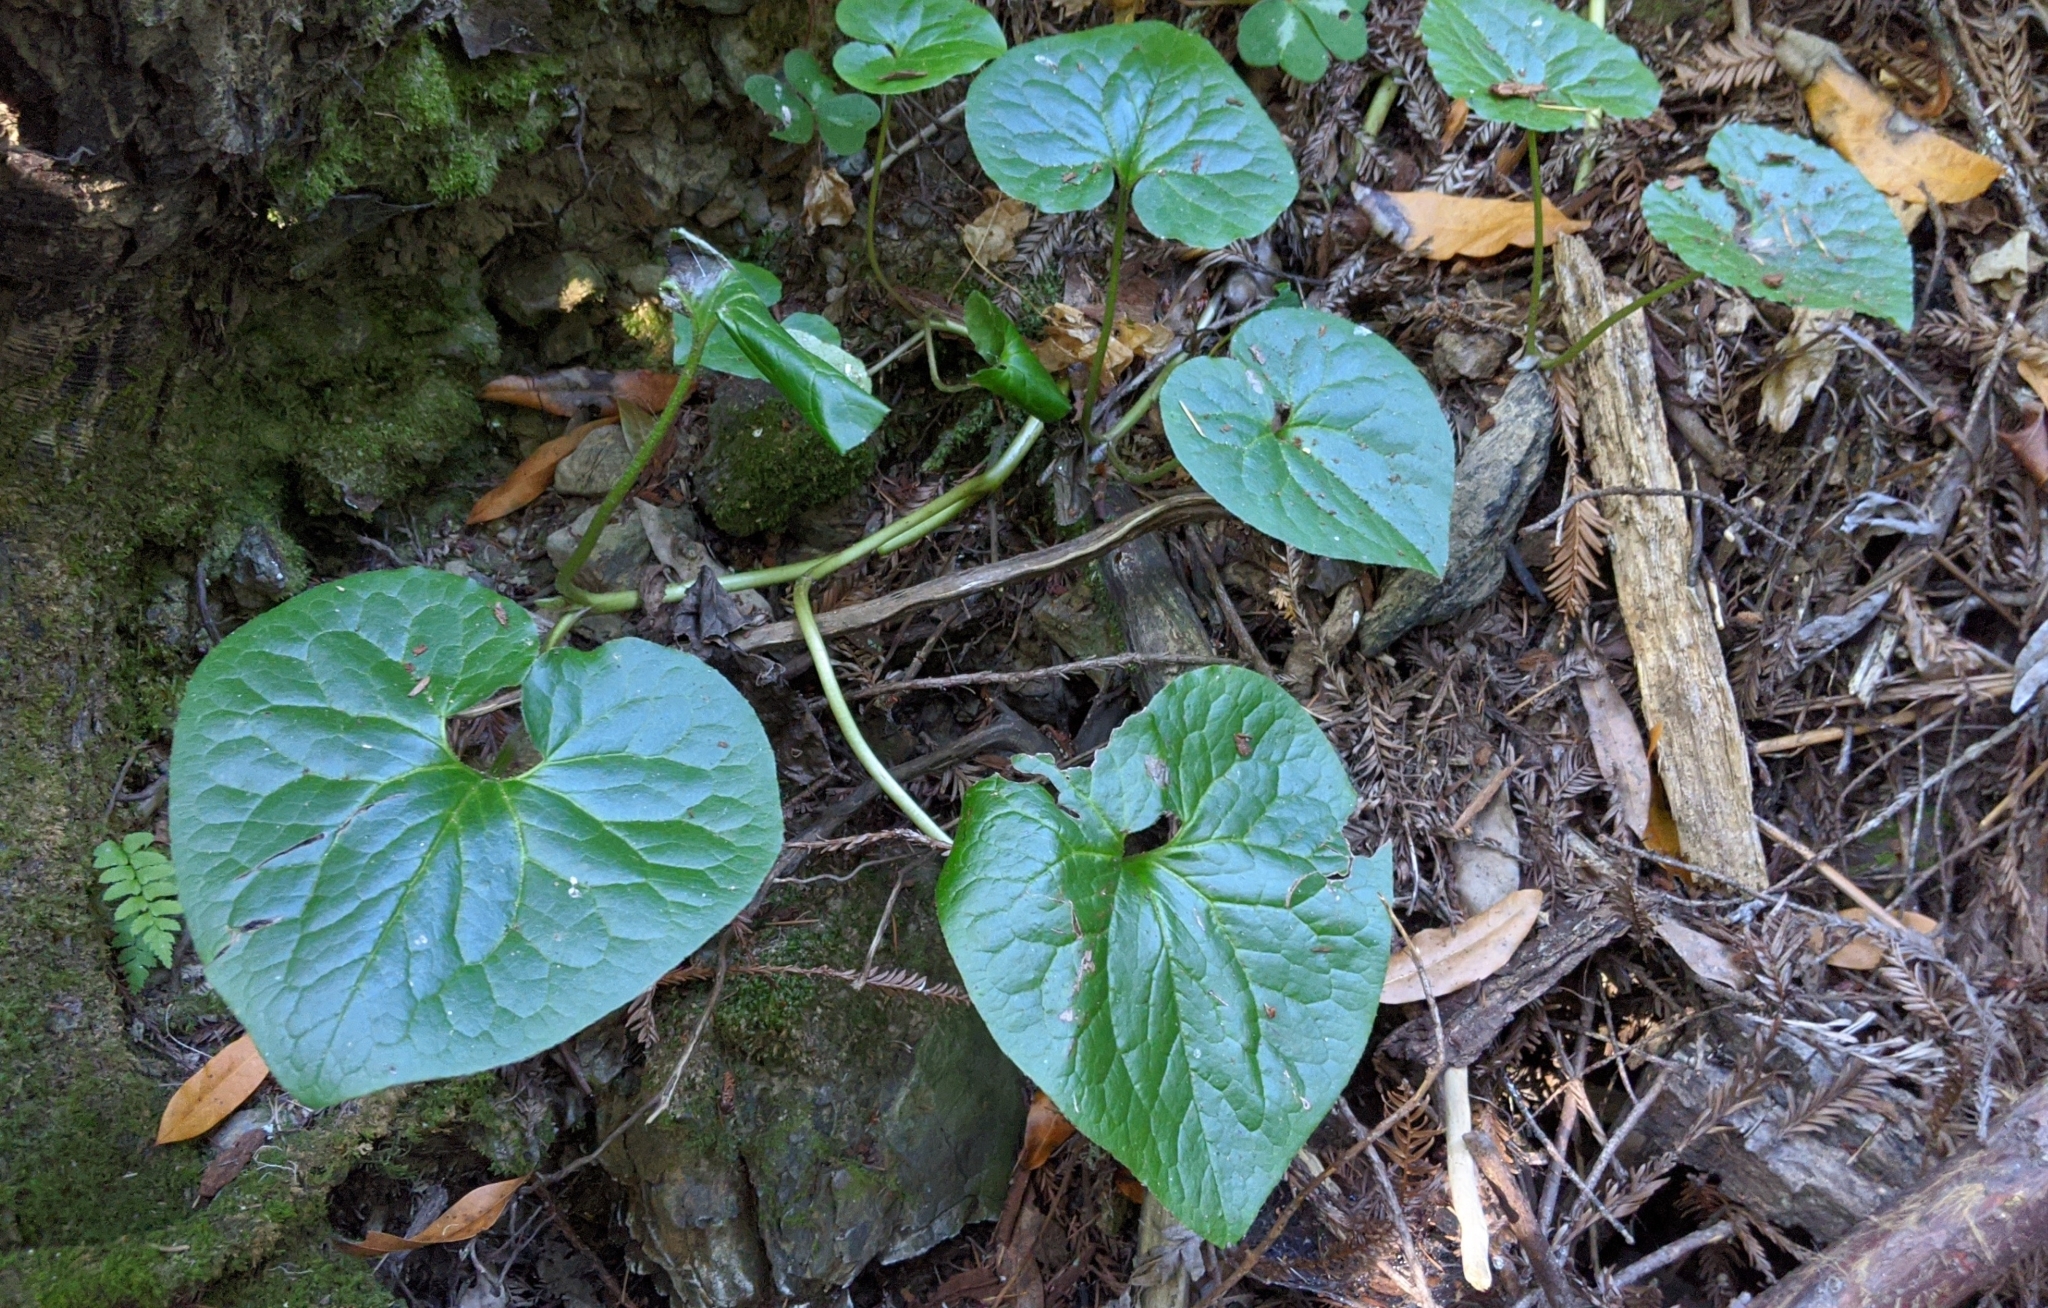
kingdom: Plantae
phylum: Tracheophyta
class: Magnoliopsida
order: Piperales
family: Aristolochiaceae
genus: Asarum
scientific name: Asarum caudatum
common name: Wild ginger
